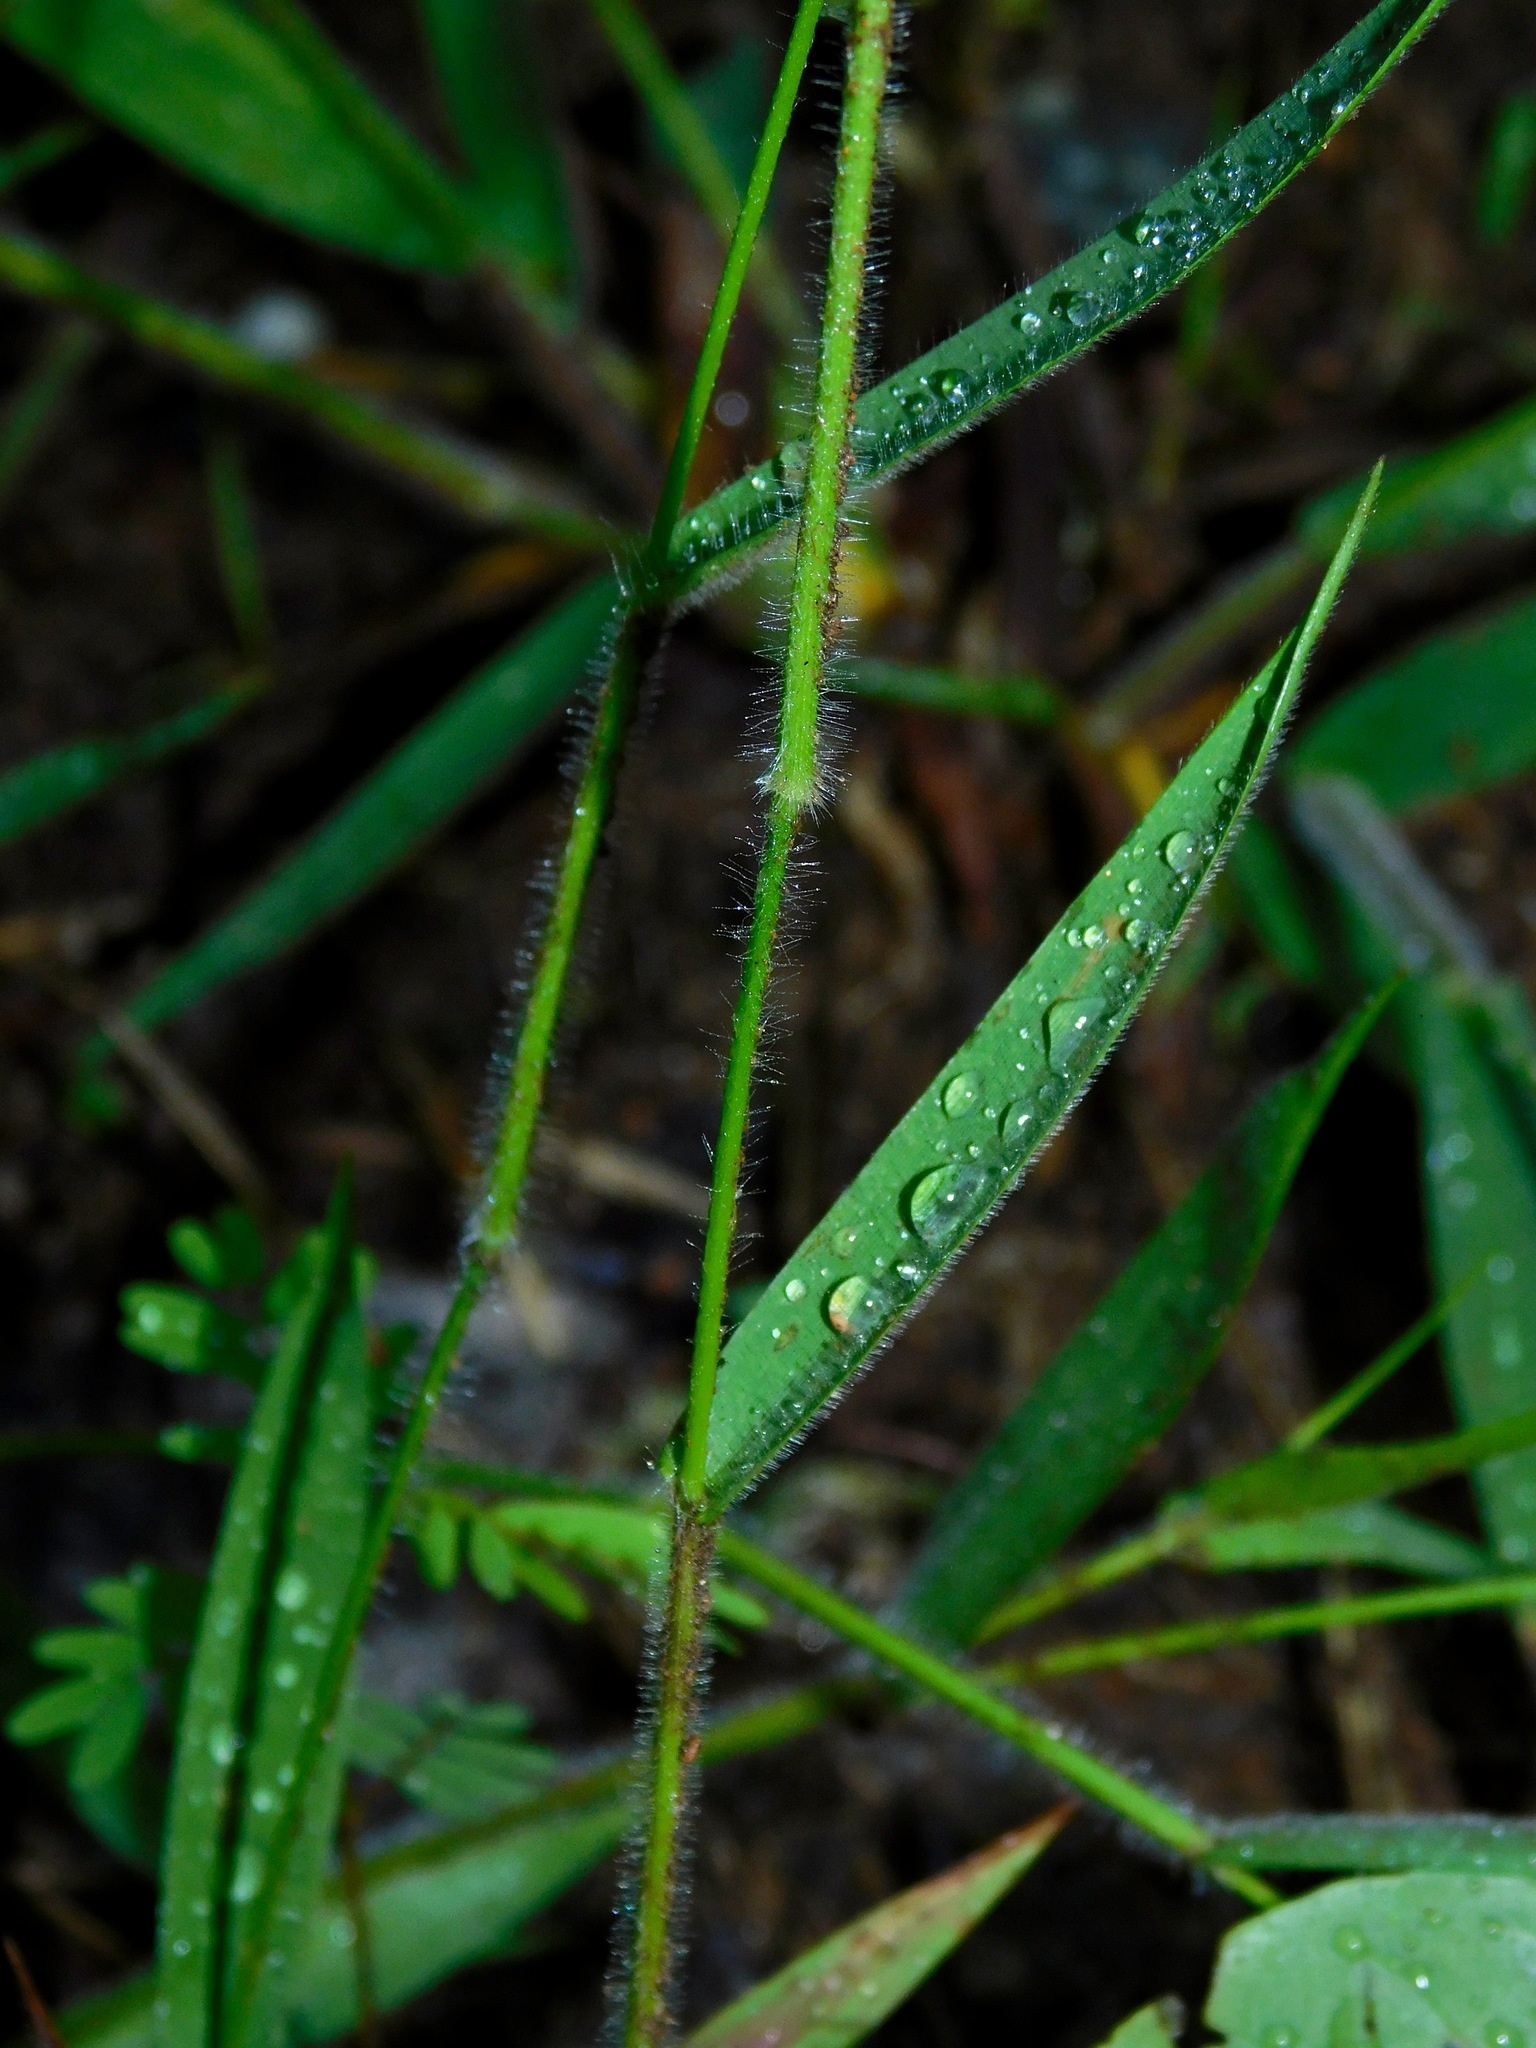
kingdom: Plantae
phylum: Tracheophyta
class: Liliopsida
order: Poales
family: Poaceae
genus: Dichanthelium
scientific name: Dichanthelium acuminatum
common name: Hairy panic grass
